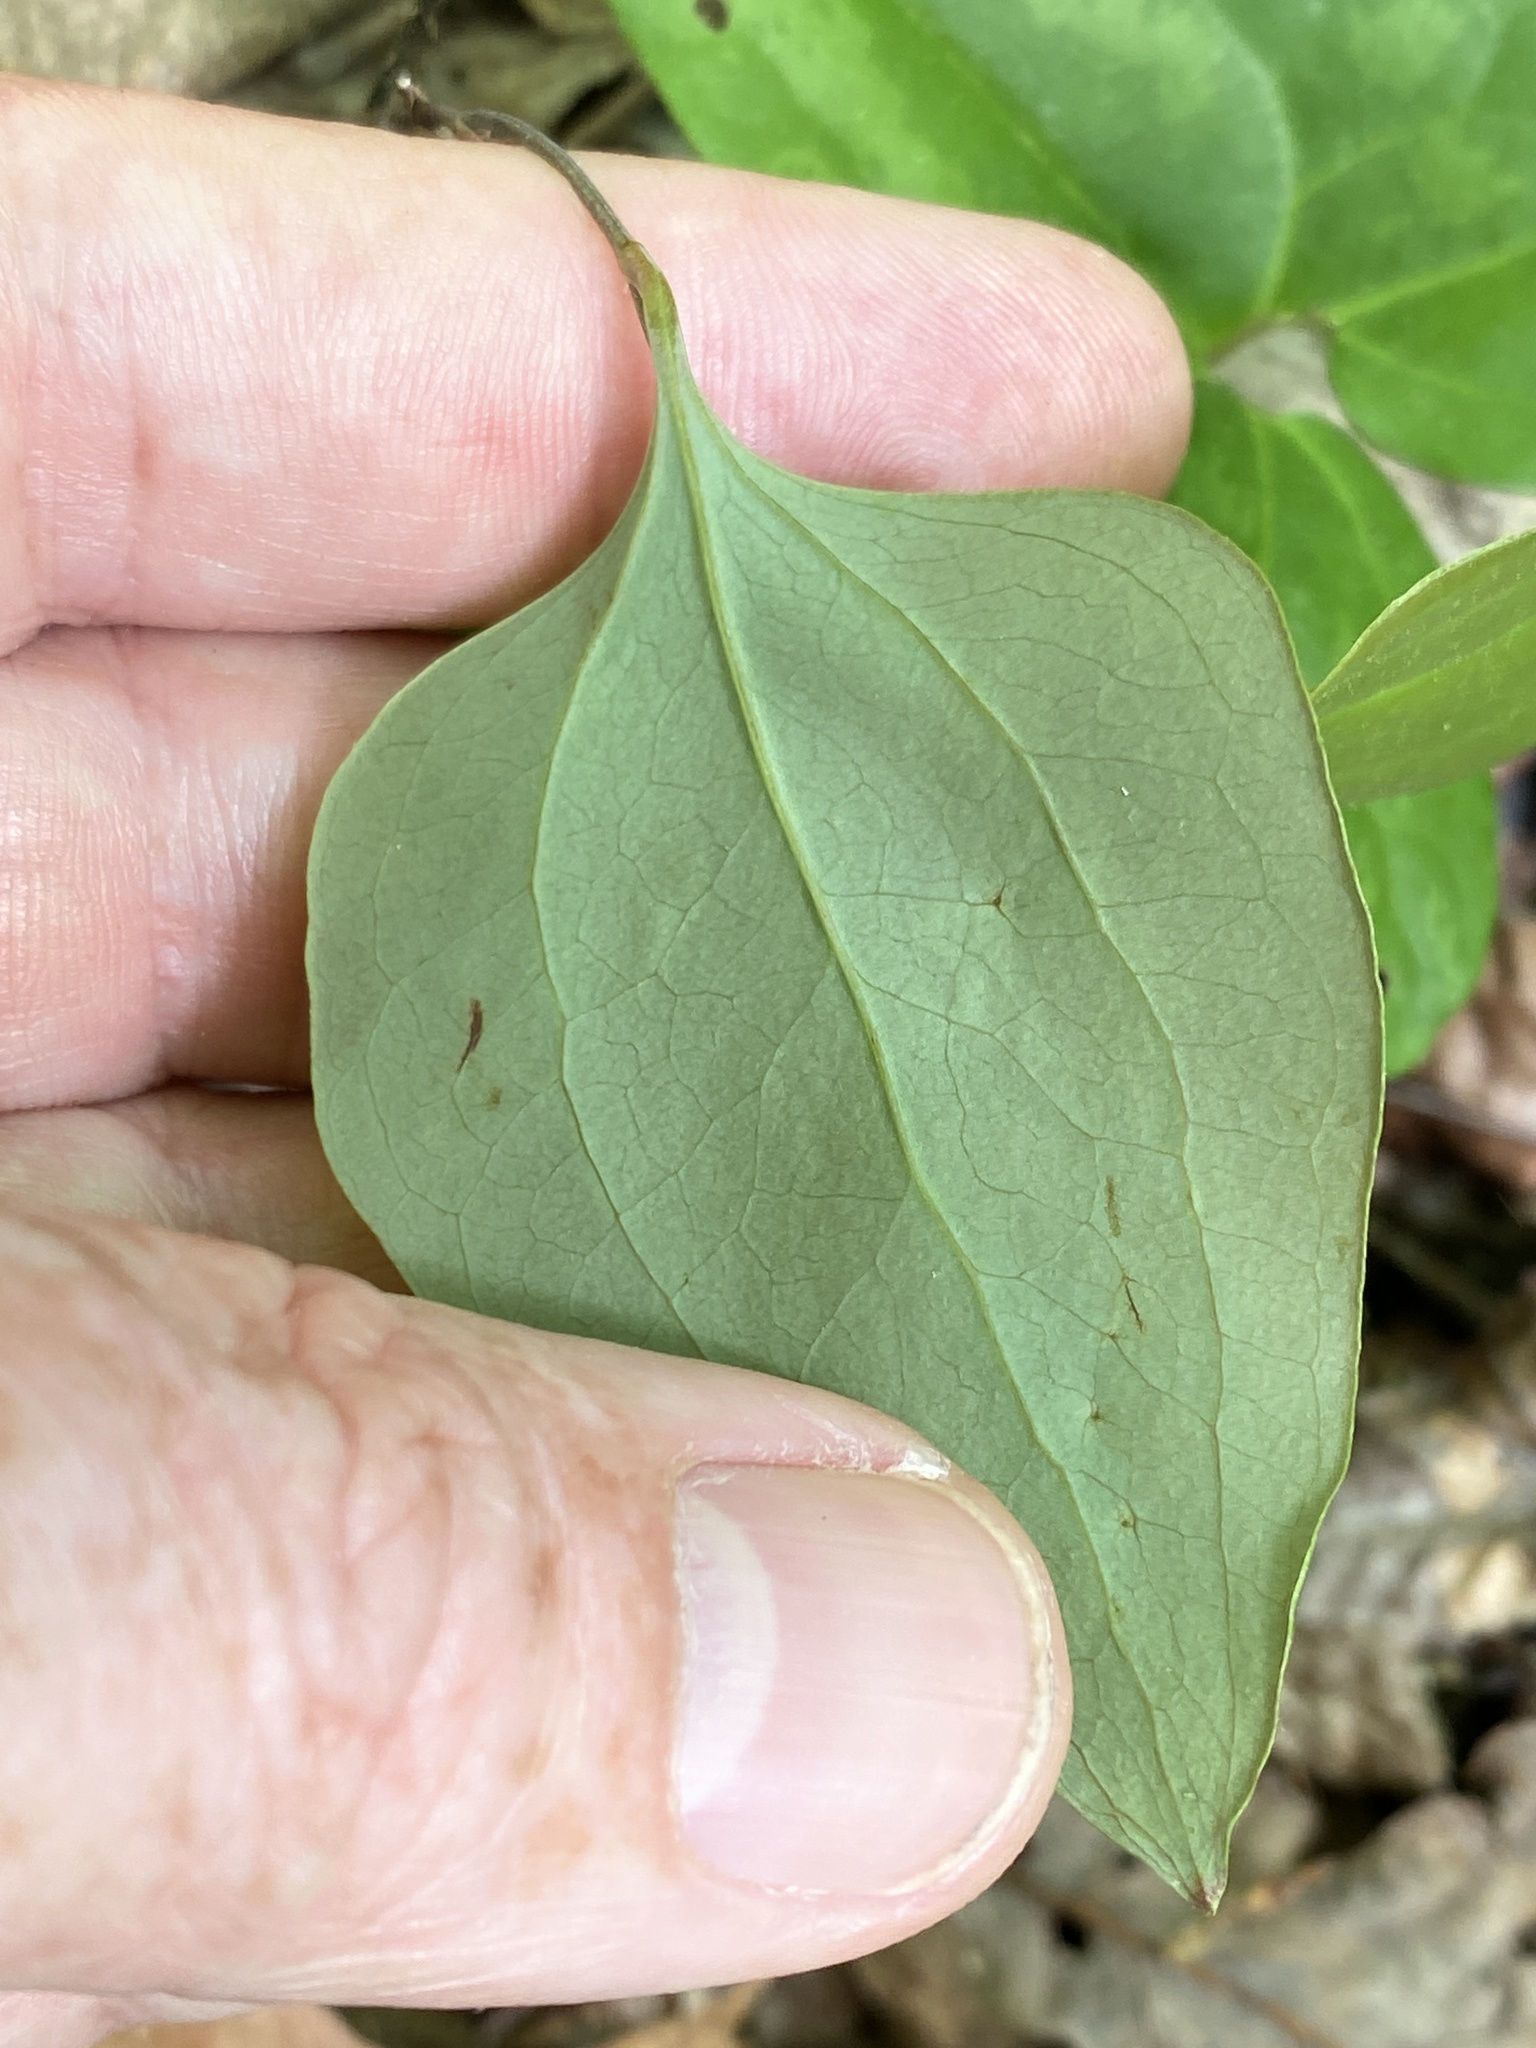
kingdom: Plantae
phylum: Tracheophyta
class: Liliopsida
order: Liliales
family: Smilacaceae
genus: Smilax
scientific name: Smilax glauca
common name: Cat greenbrier
